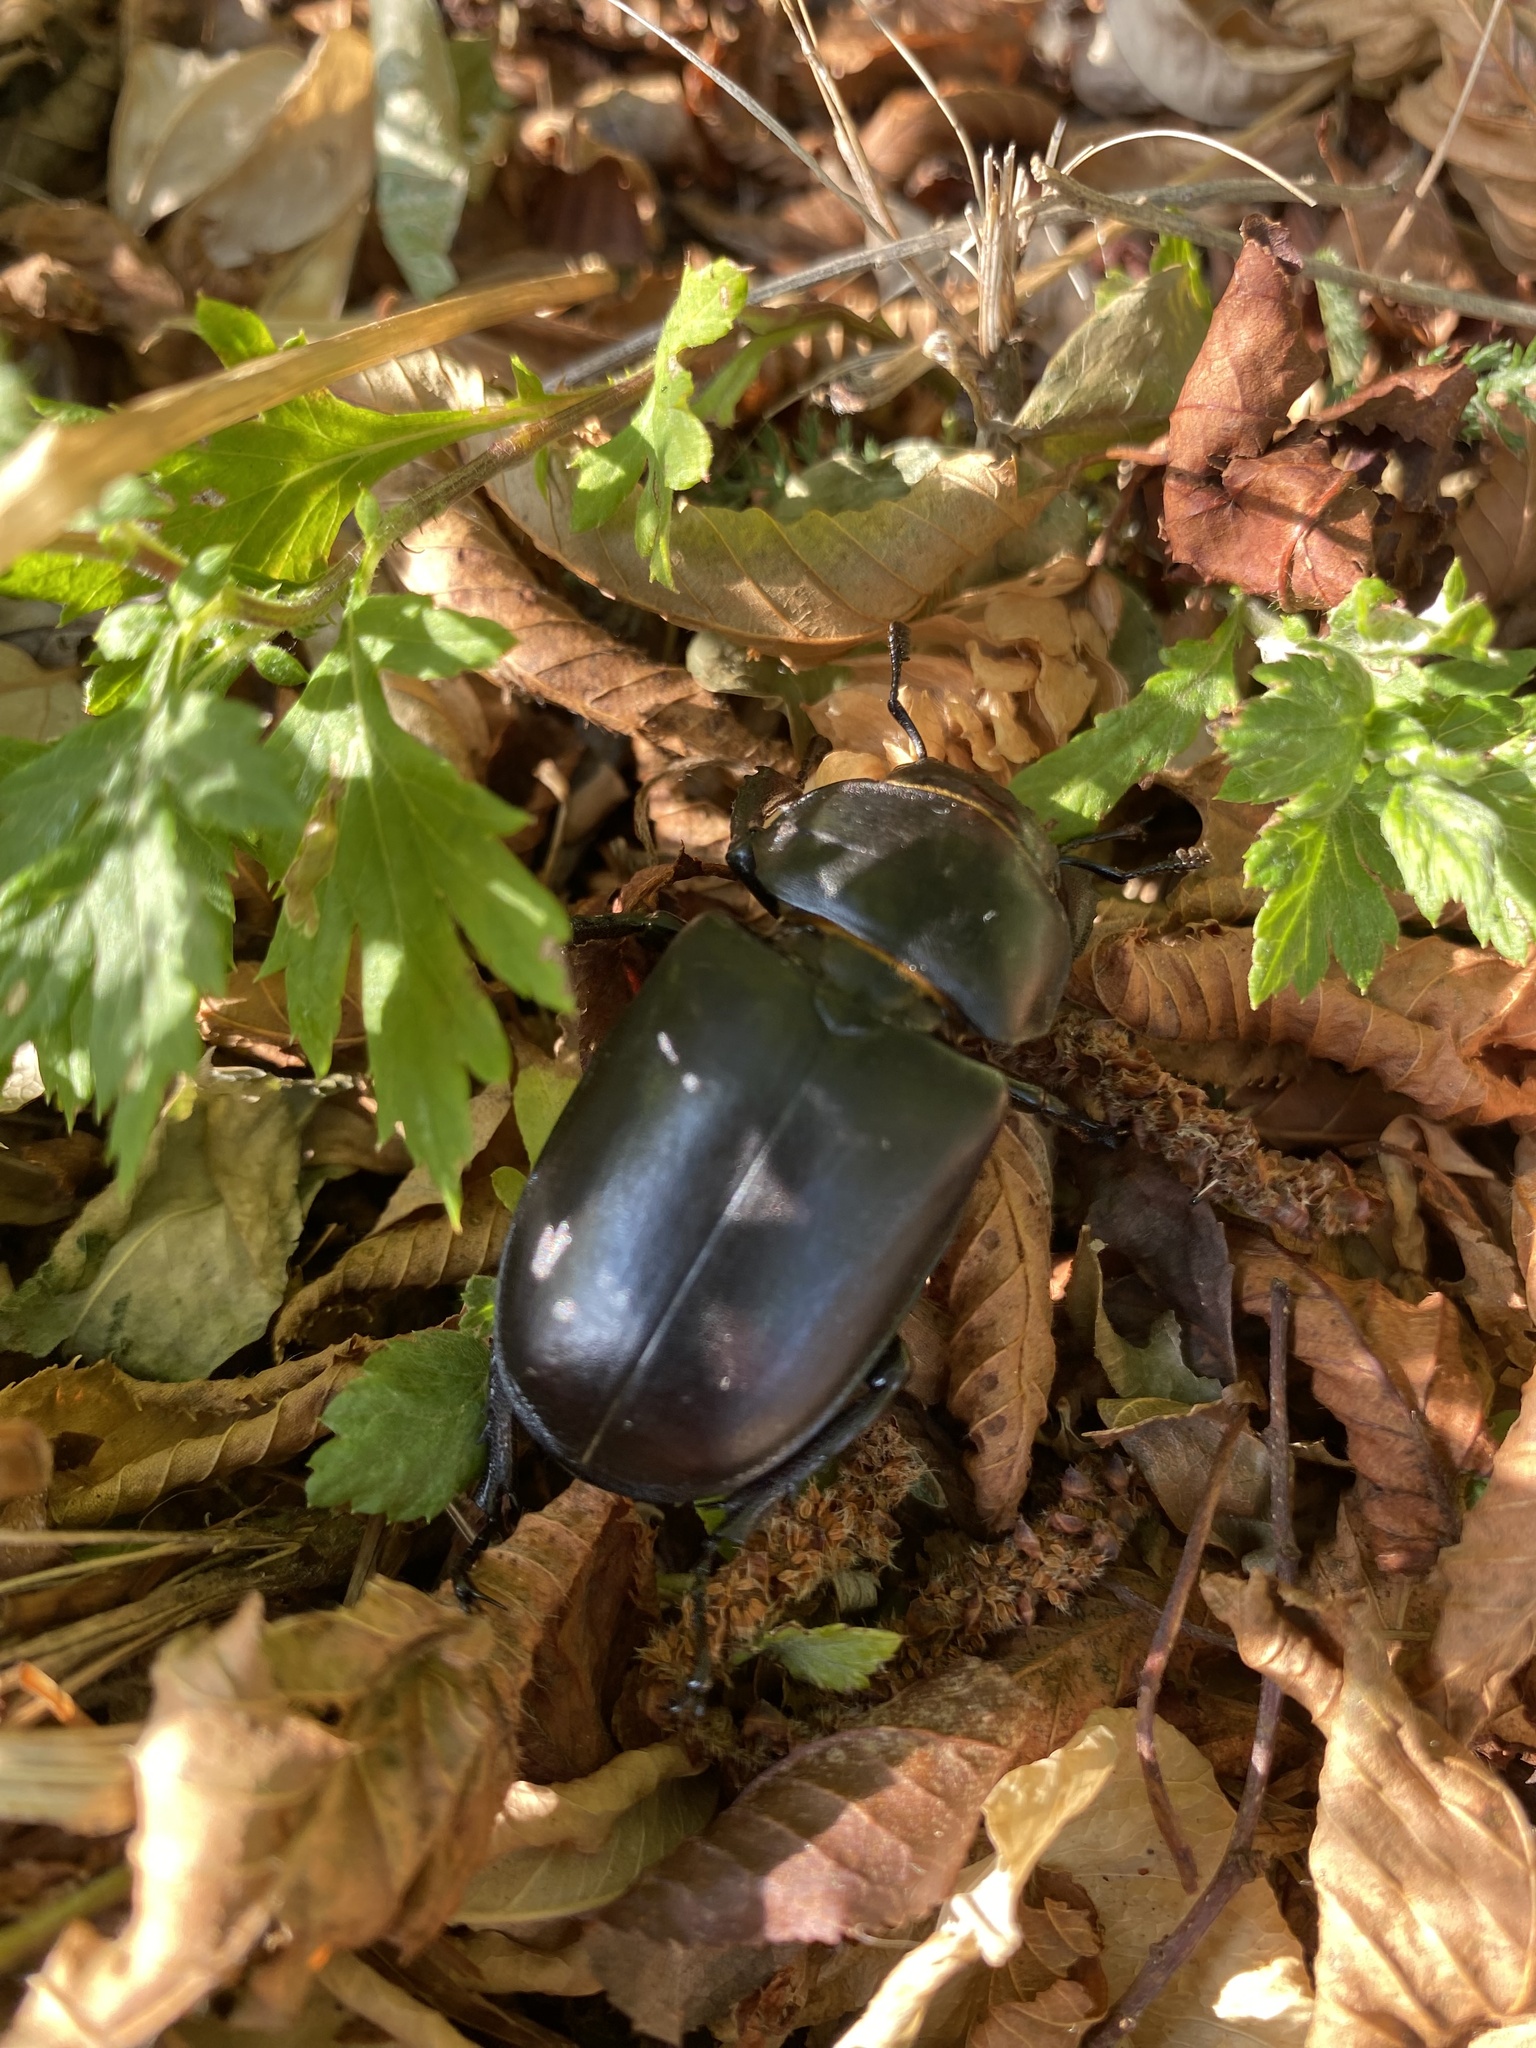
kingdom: Animalia
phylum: Arthropoda
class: Insecta
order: Coleoptera
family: Lucanidae
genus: Lucanus
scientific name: Lucanus cervus
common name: Stag beetle
